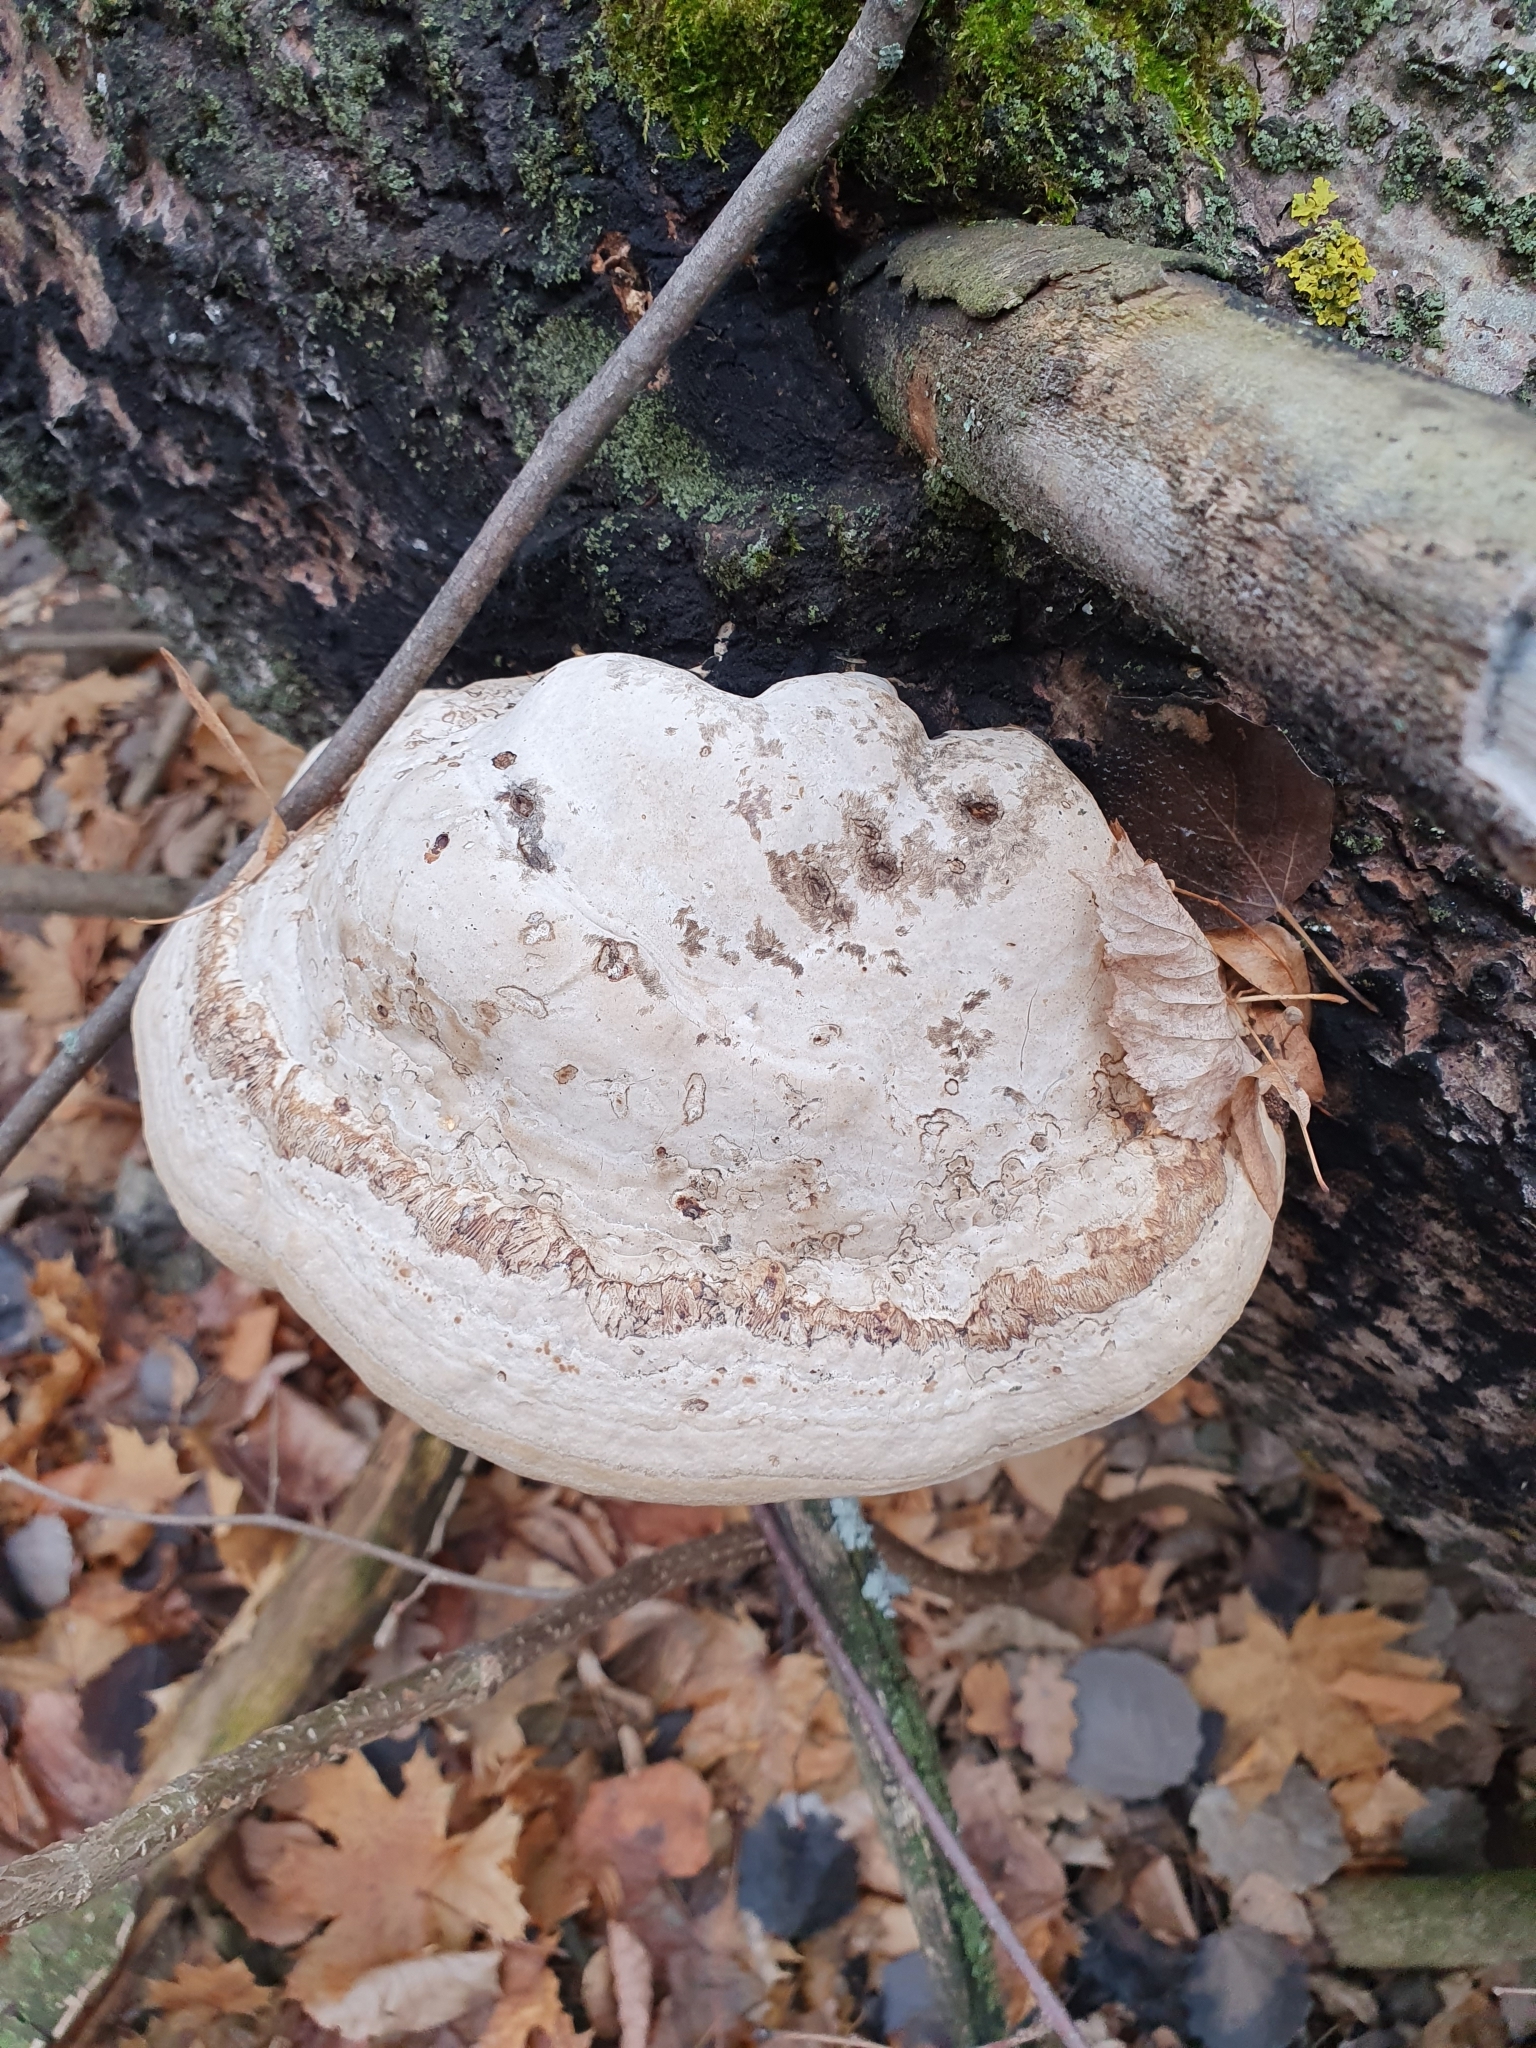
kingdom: Fungi
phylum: Basidiomycota
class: Agaricomycetes
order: Polyporales
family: Polyporaceae
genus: Fomes
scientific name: Fomes fomentarius
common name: Hoof fungus
